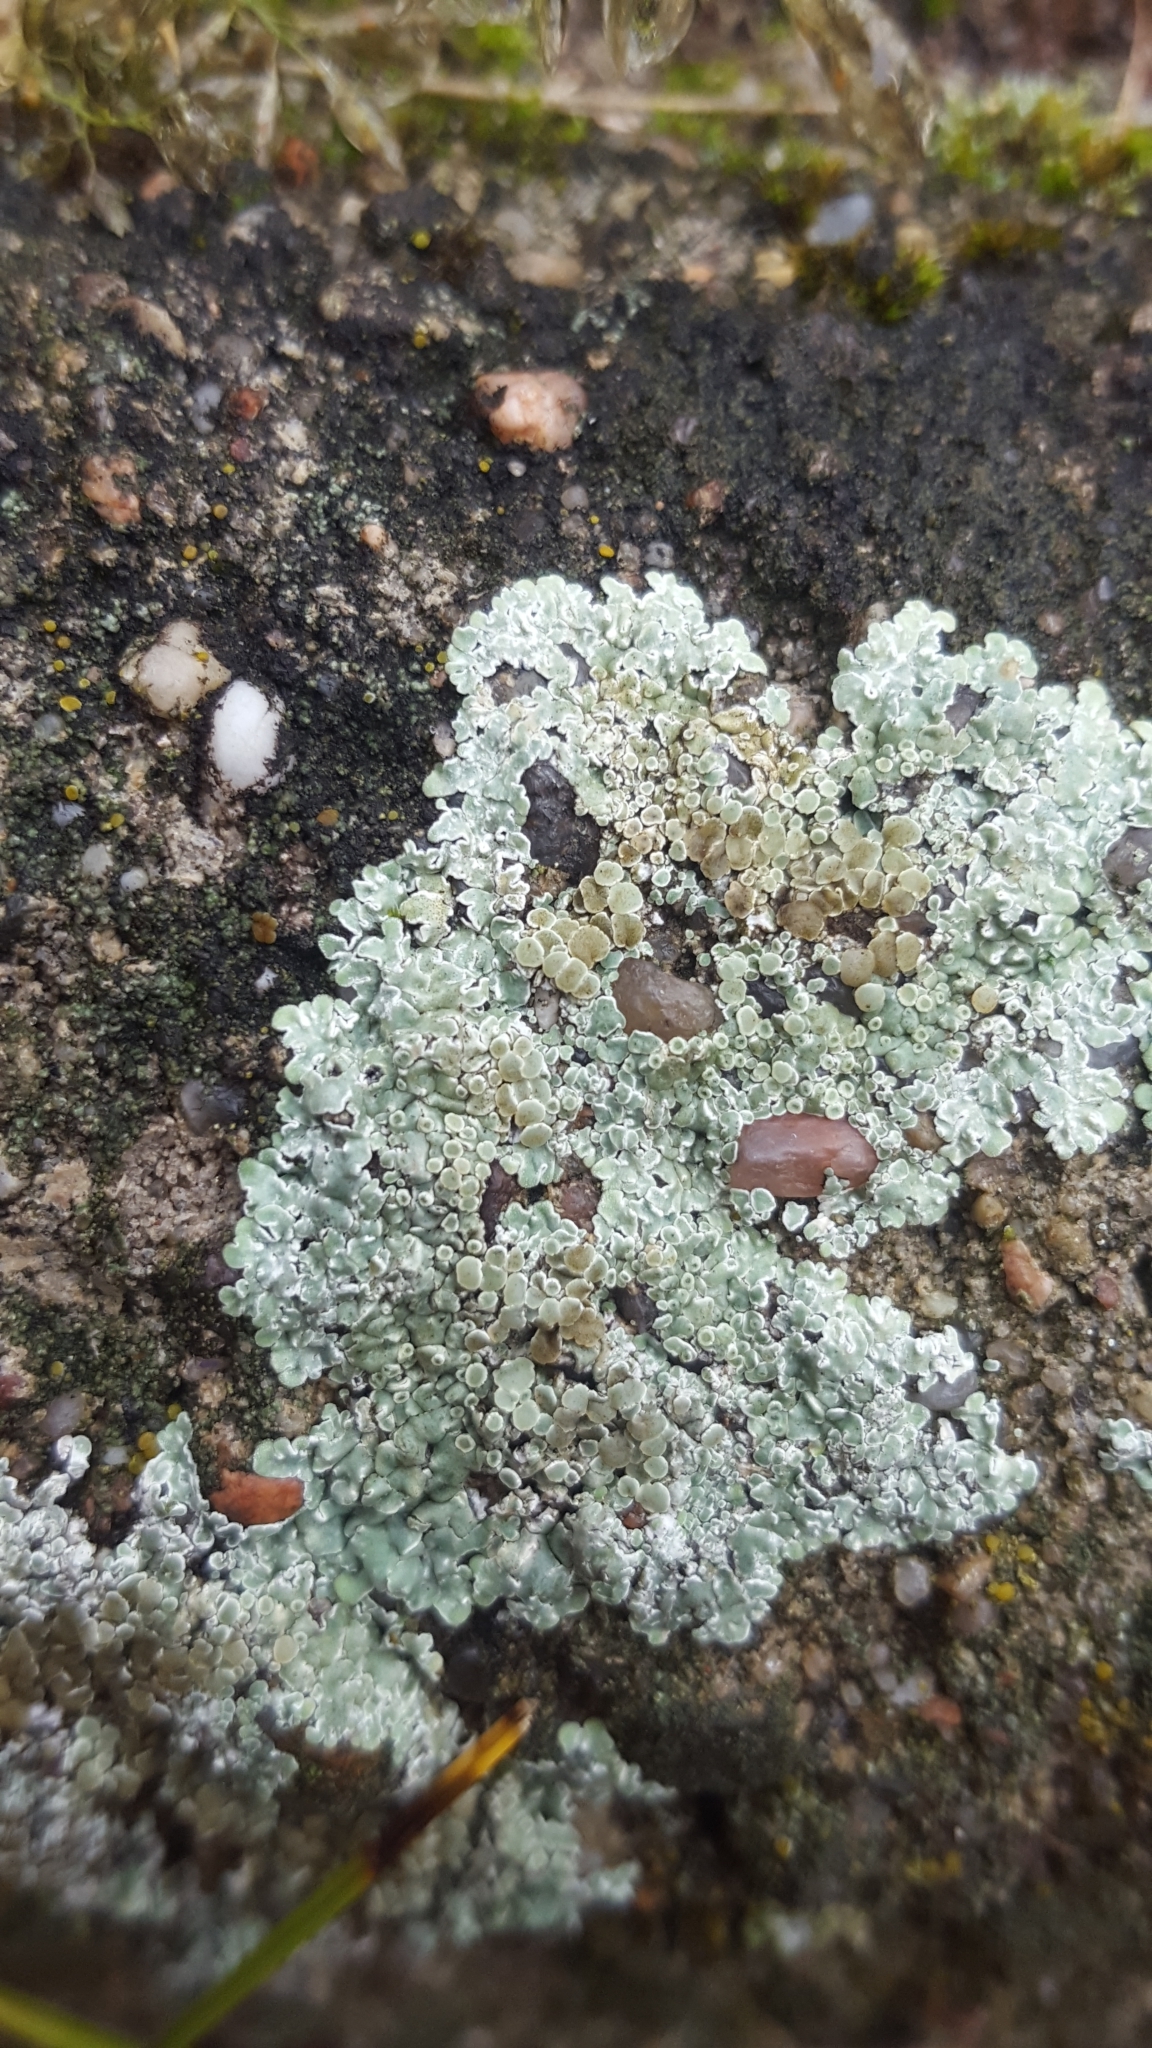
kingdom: Fungi
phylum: Ascomycota
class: Lecanoromycetes
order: Lecanorales
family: Lecanoraceae
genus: Protoparmeliopsis
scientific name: Protoparmeliopsis muralis
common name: Stonewall rim lichen
